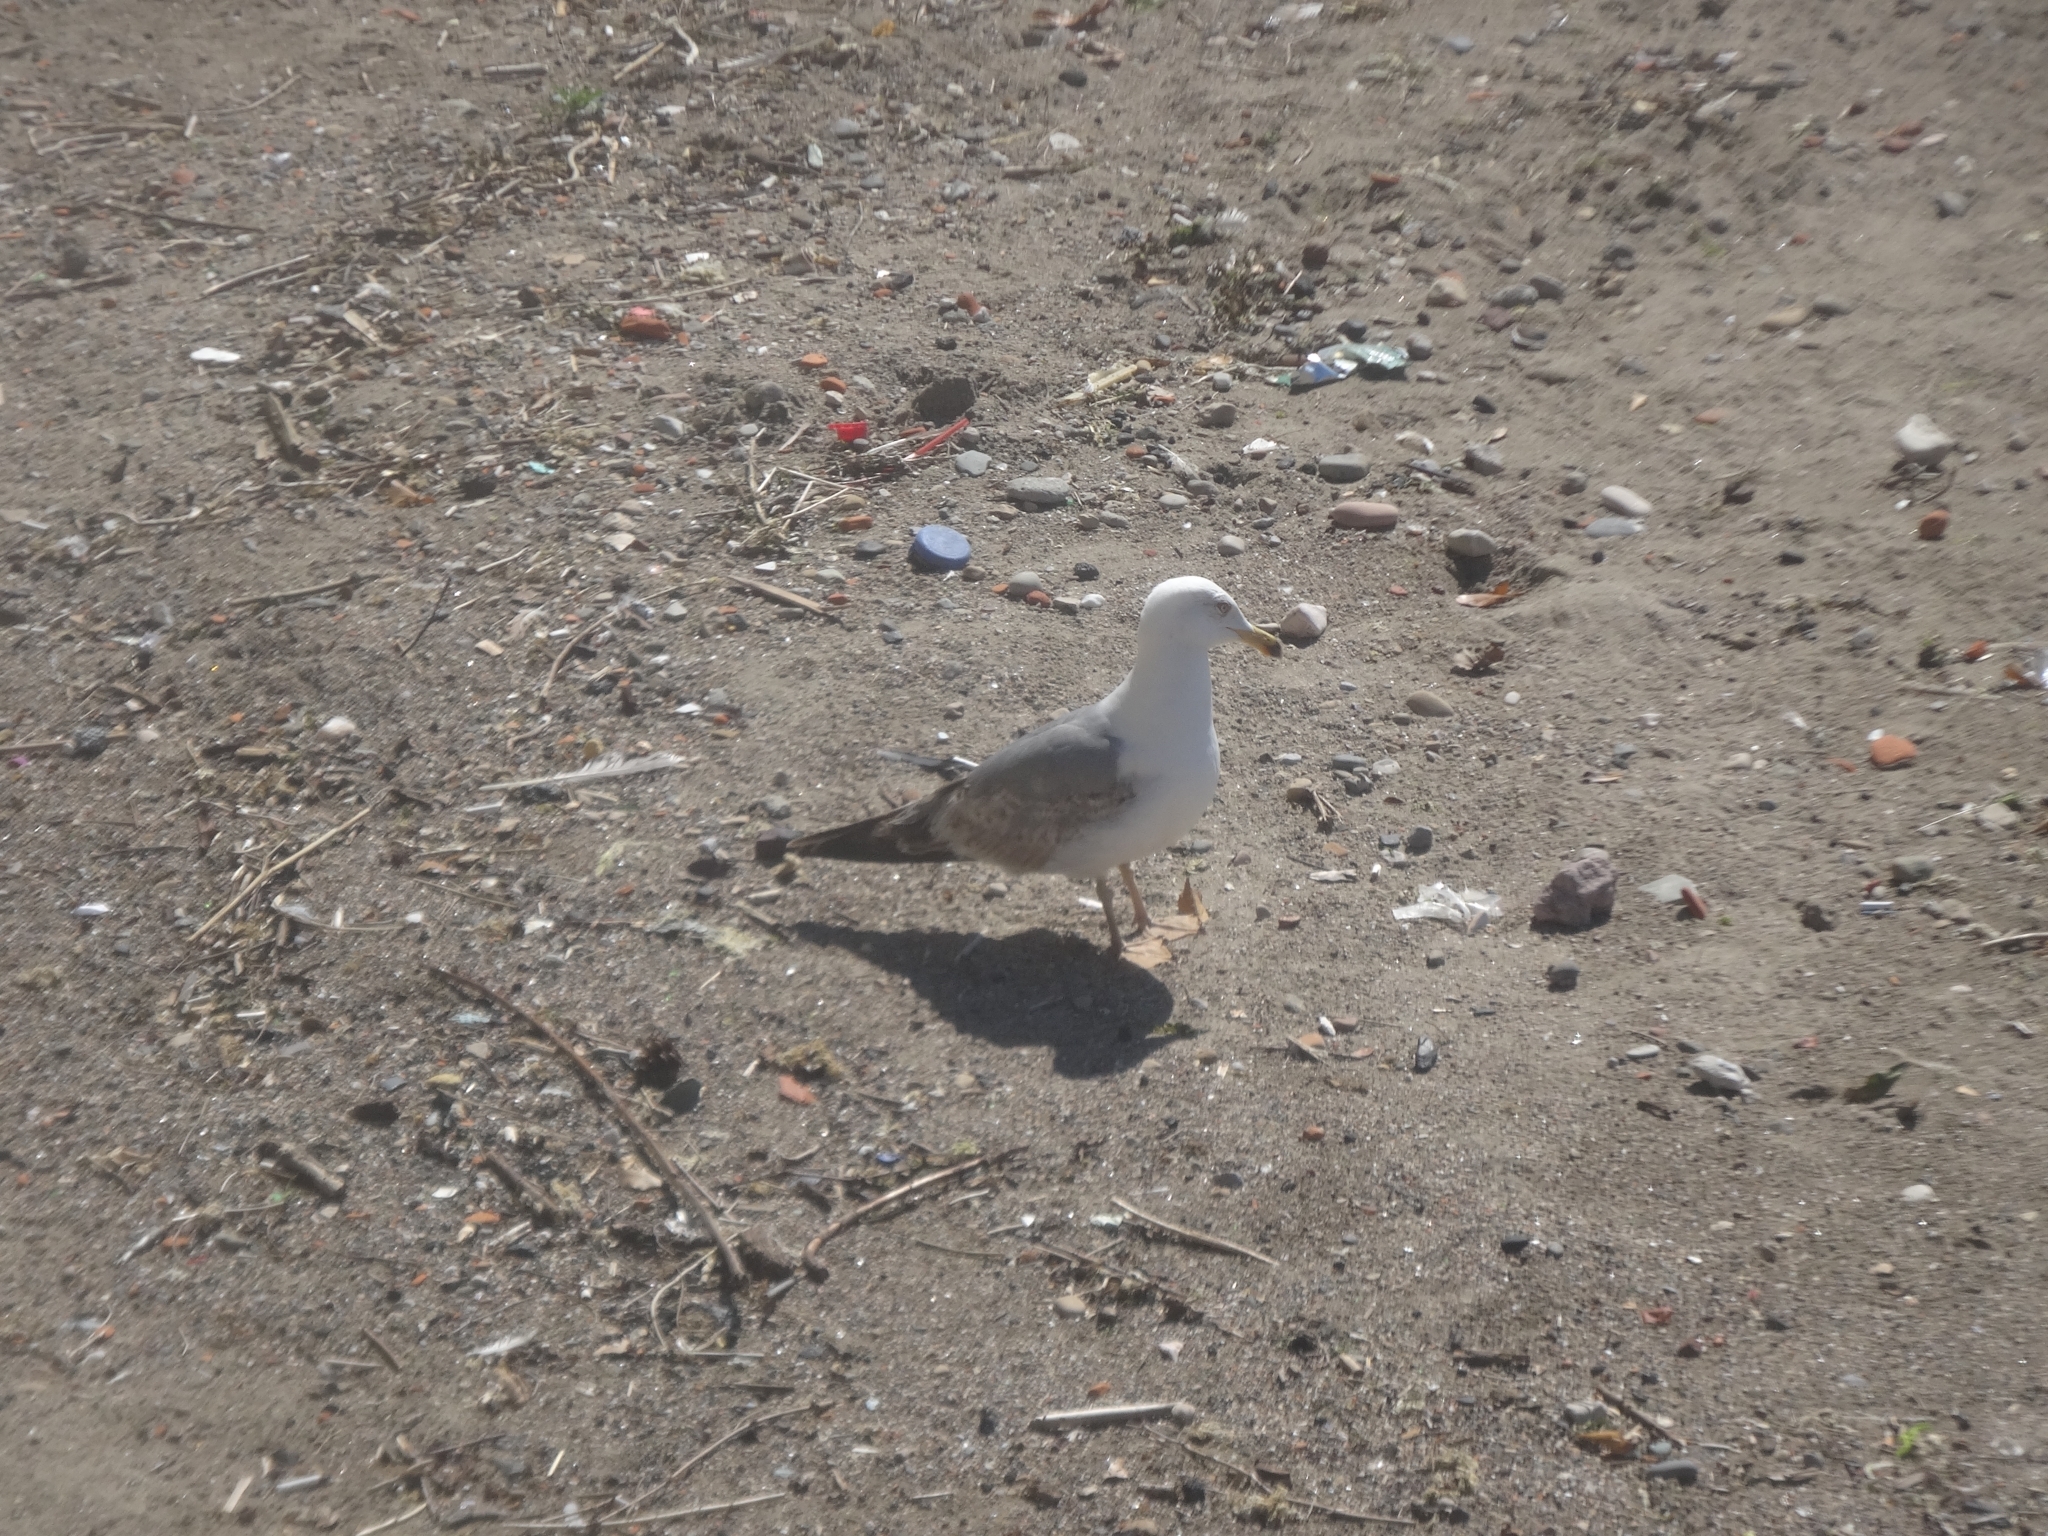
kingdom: Animalia
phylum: Chordata
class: Aves
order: Charadriiformes
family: Laridae
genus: Larus
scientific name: Larus michahellis
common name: Yellow-legged gull
